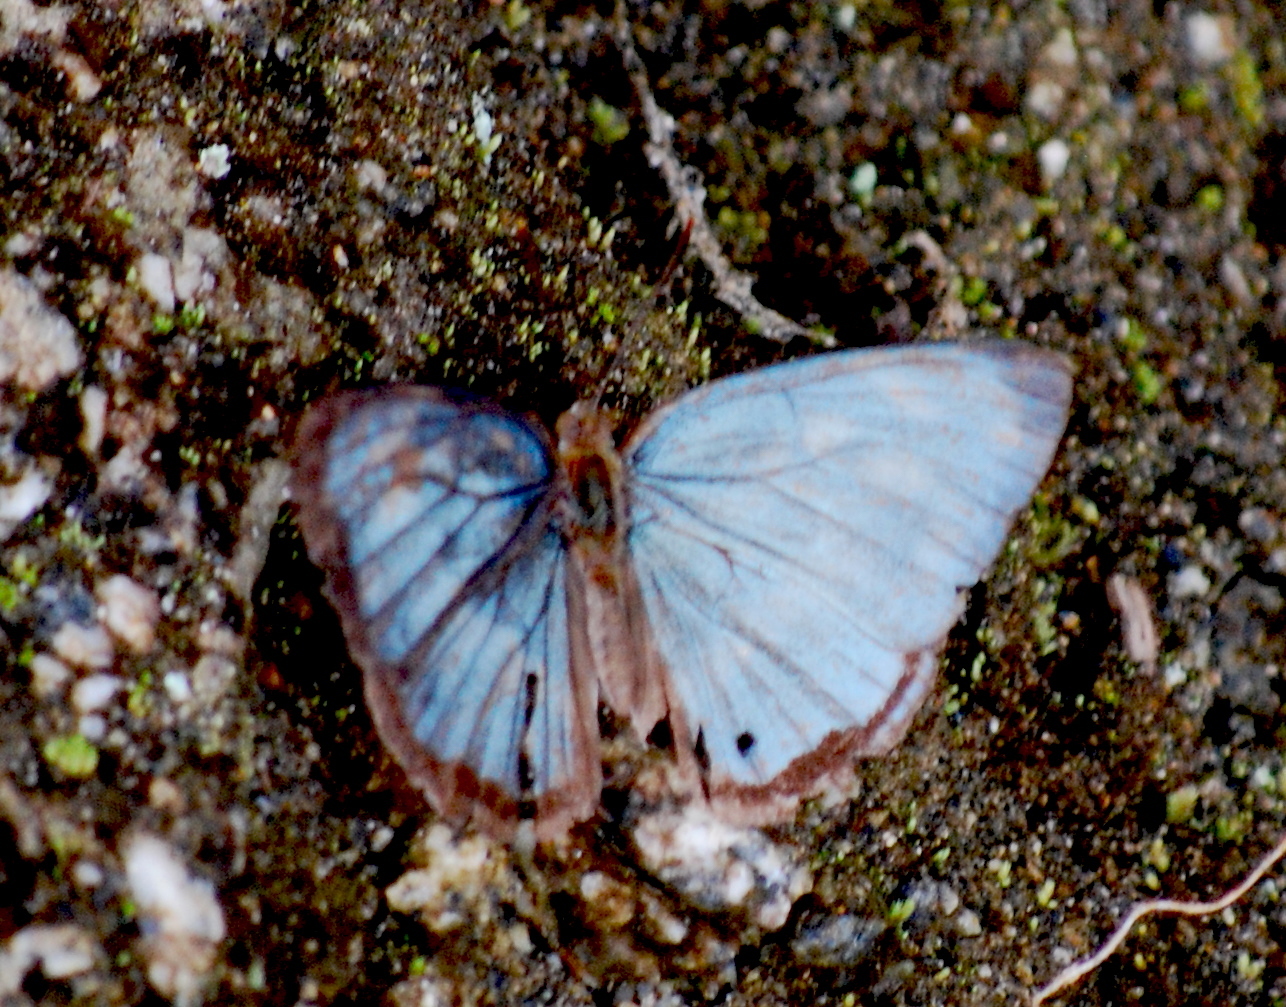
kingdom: Animalia
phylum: Arthropoda
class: Insecta
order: Lepidoptera
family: Nymphalidae
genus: Dynamine
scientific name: Dynamine paulina
